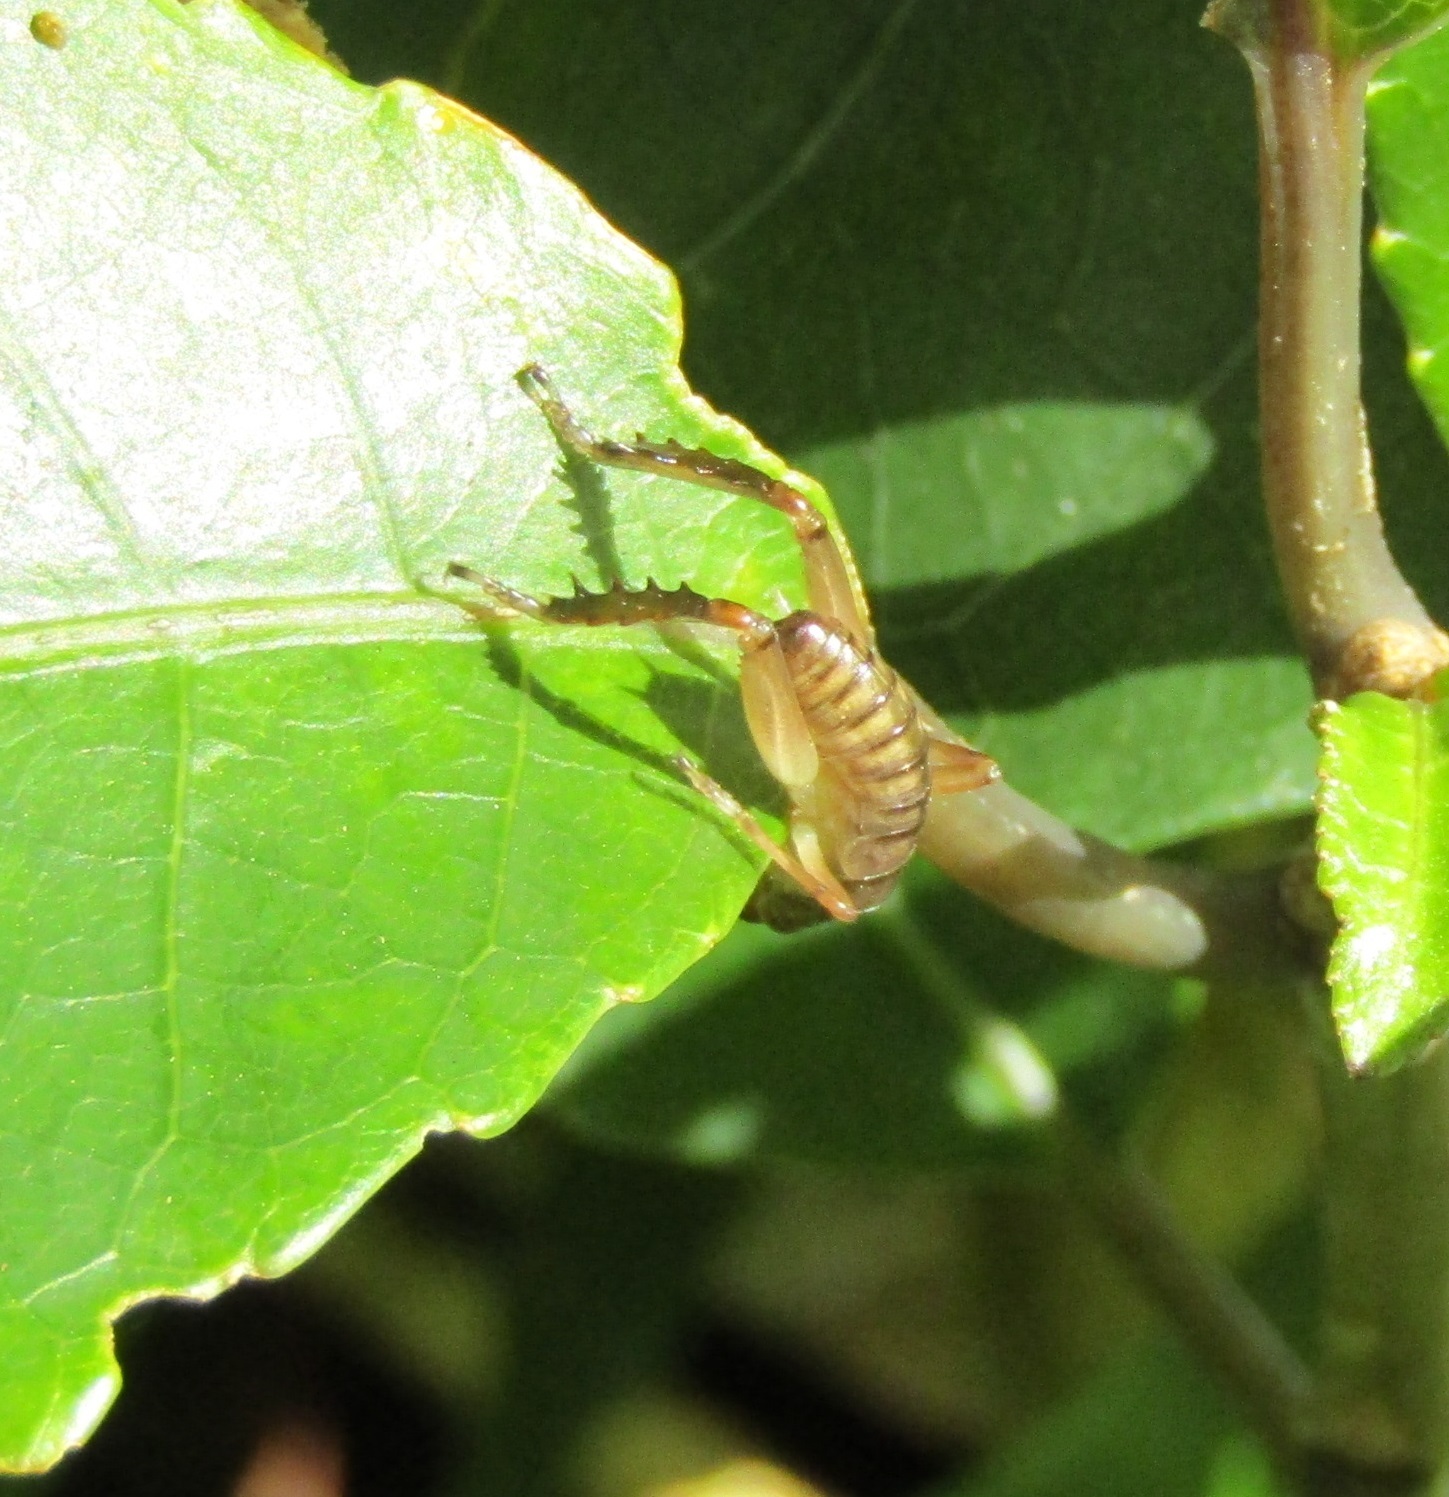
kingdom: Animalia
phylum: Arthropoda
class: Insecta
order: Orthoptera
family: Anostostomatidae
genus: Hemideina
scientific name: Hemideina crassidens
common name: Wellington tree weta
